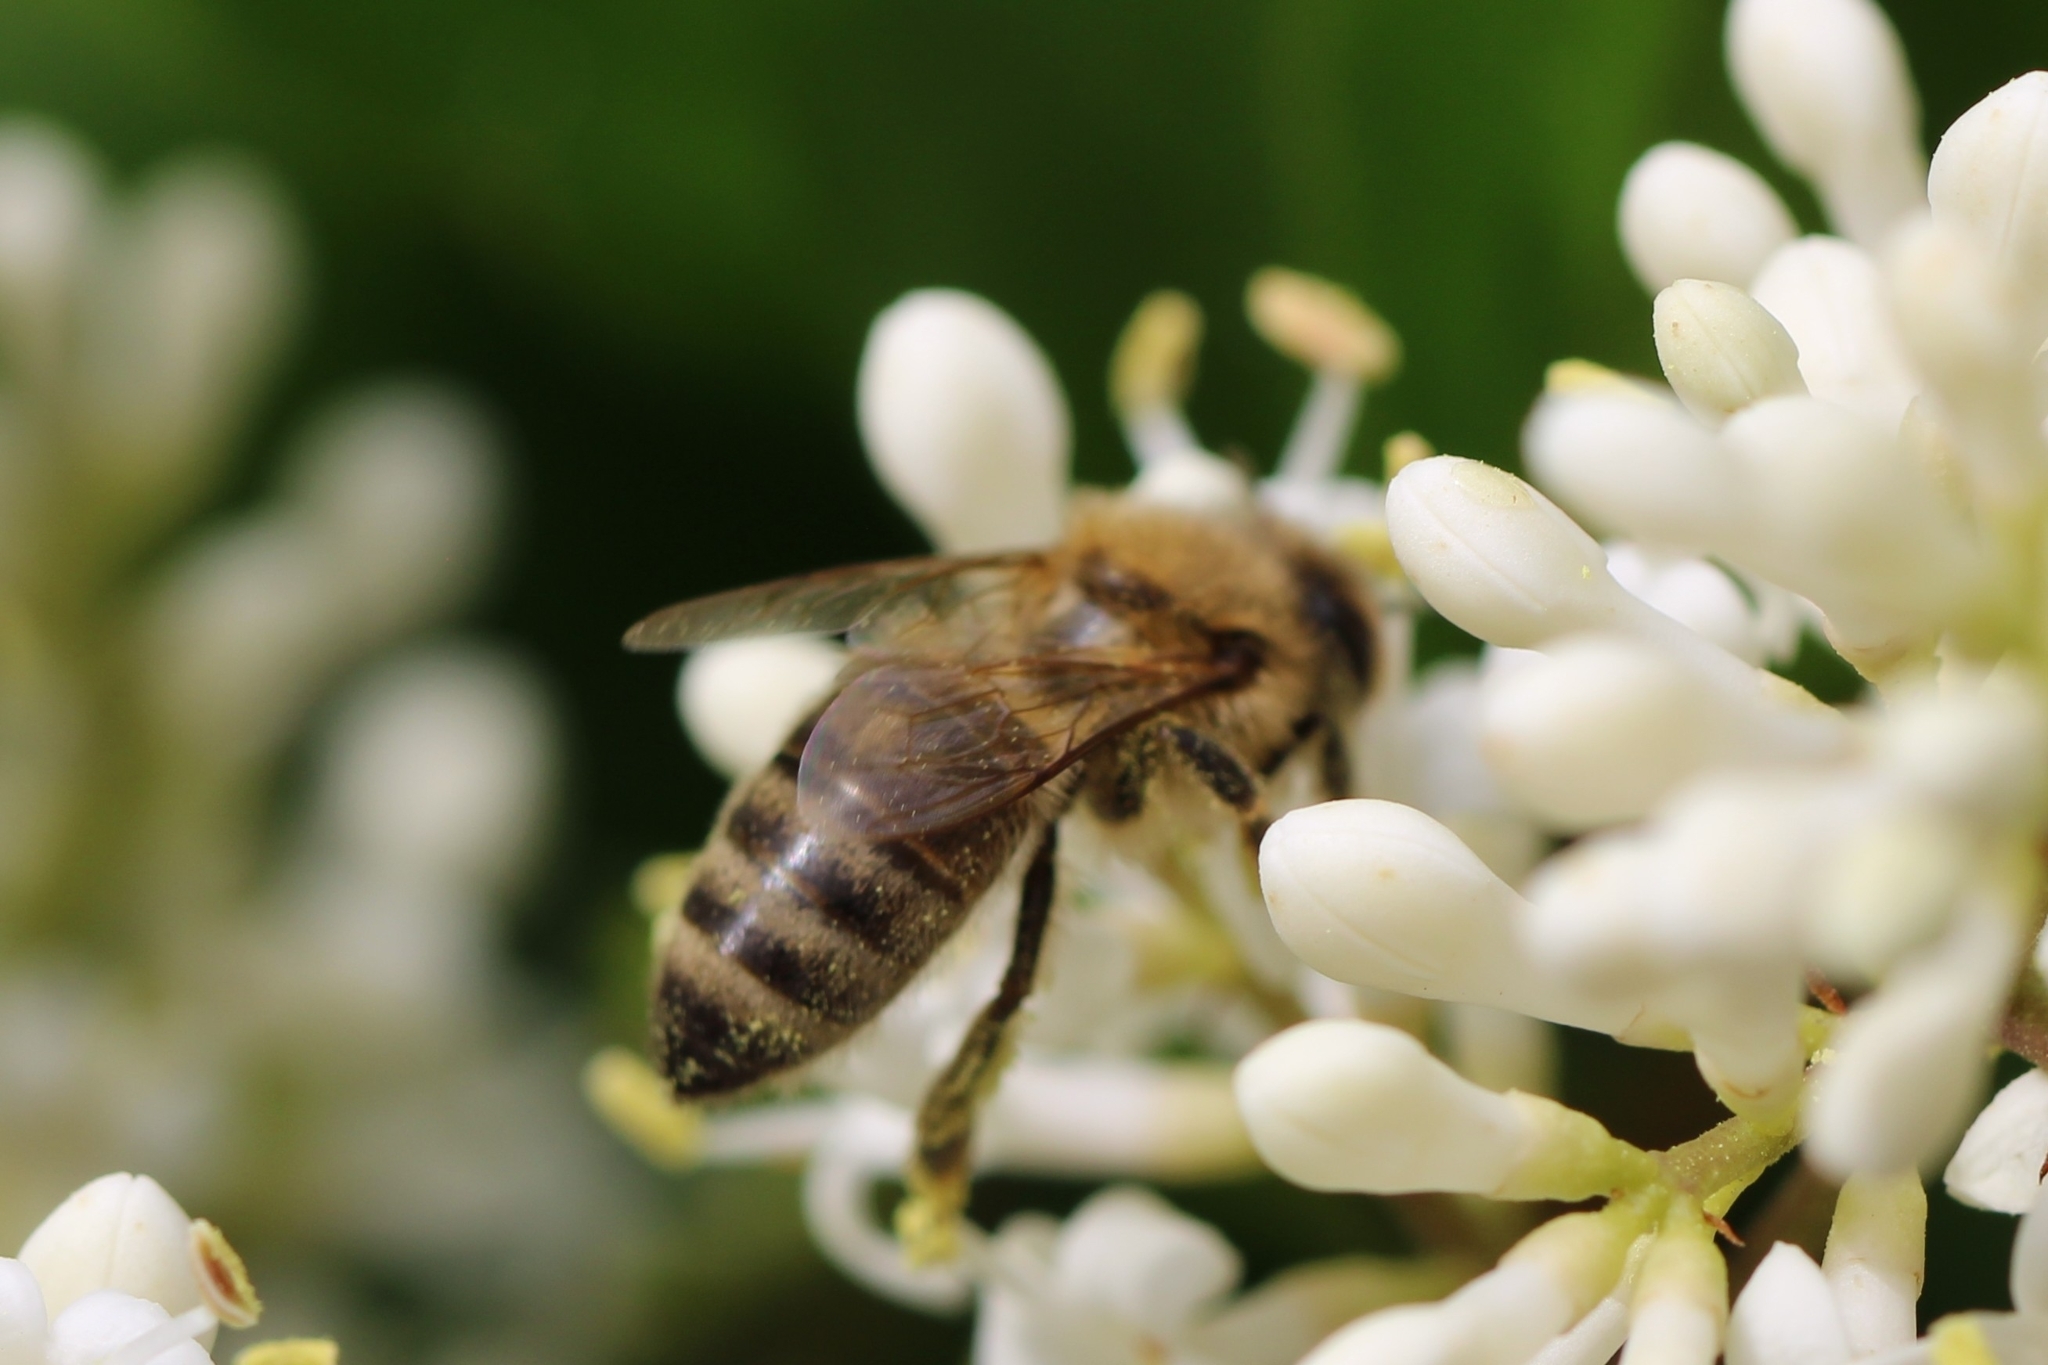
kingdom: Animalia
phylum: Arthropoda
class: Insecta
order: Hymenoptera
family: Apidae
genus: Apis
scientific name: Apis mellifera
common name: Honey bee
